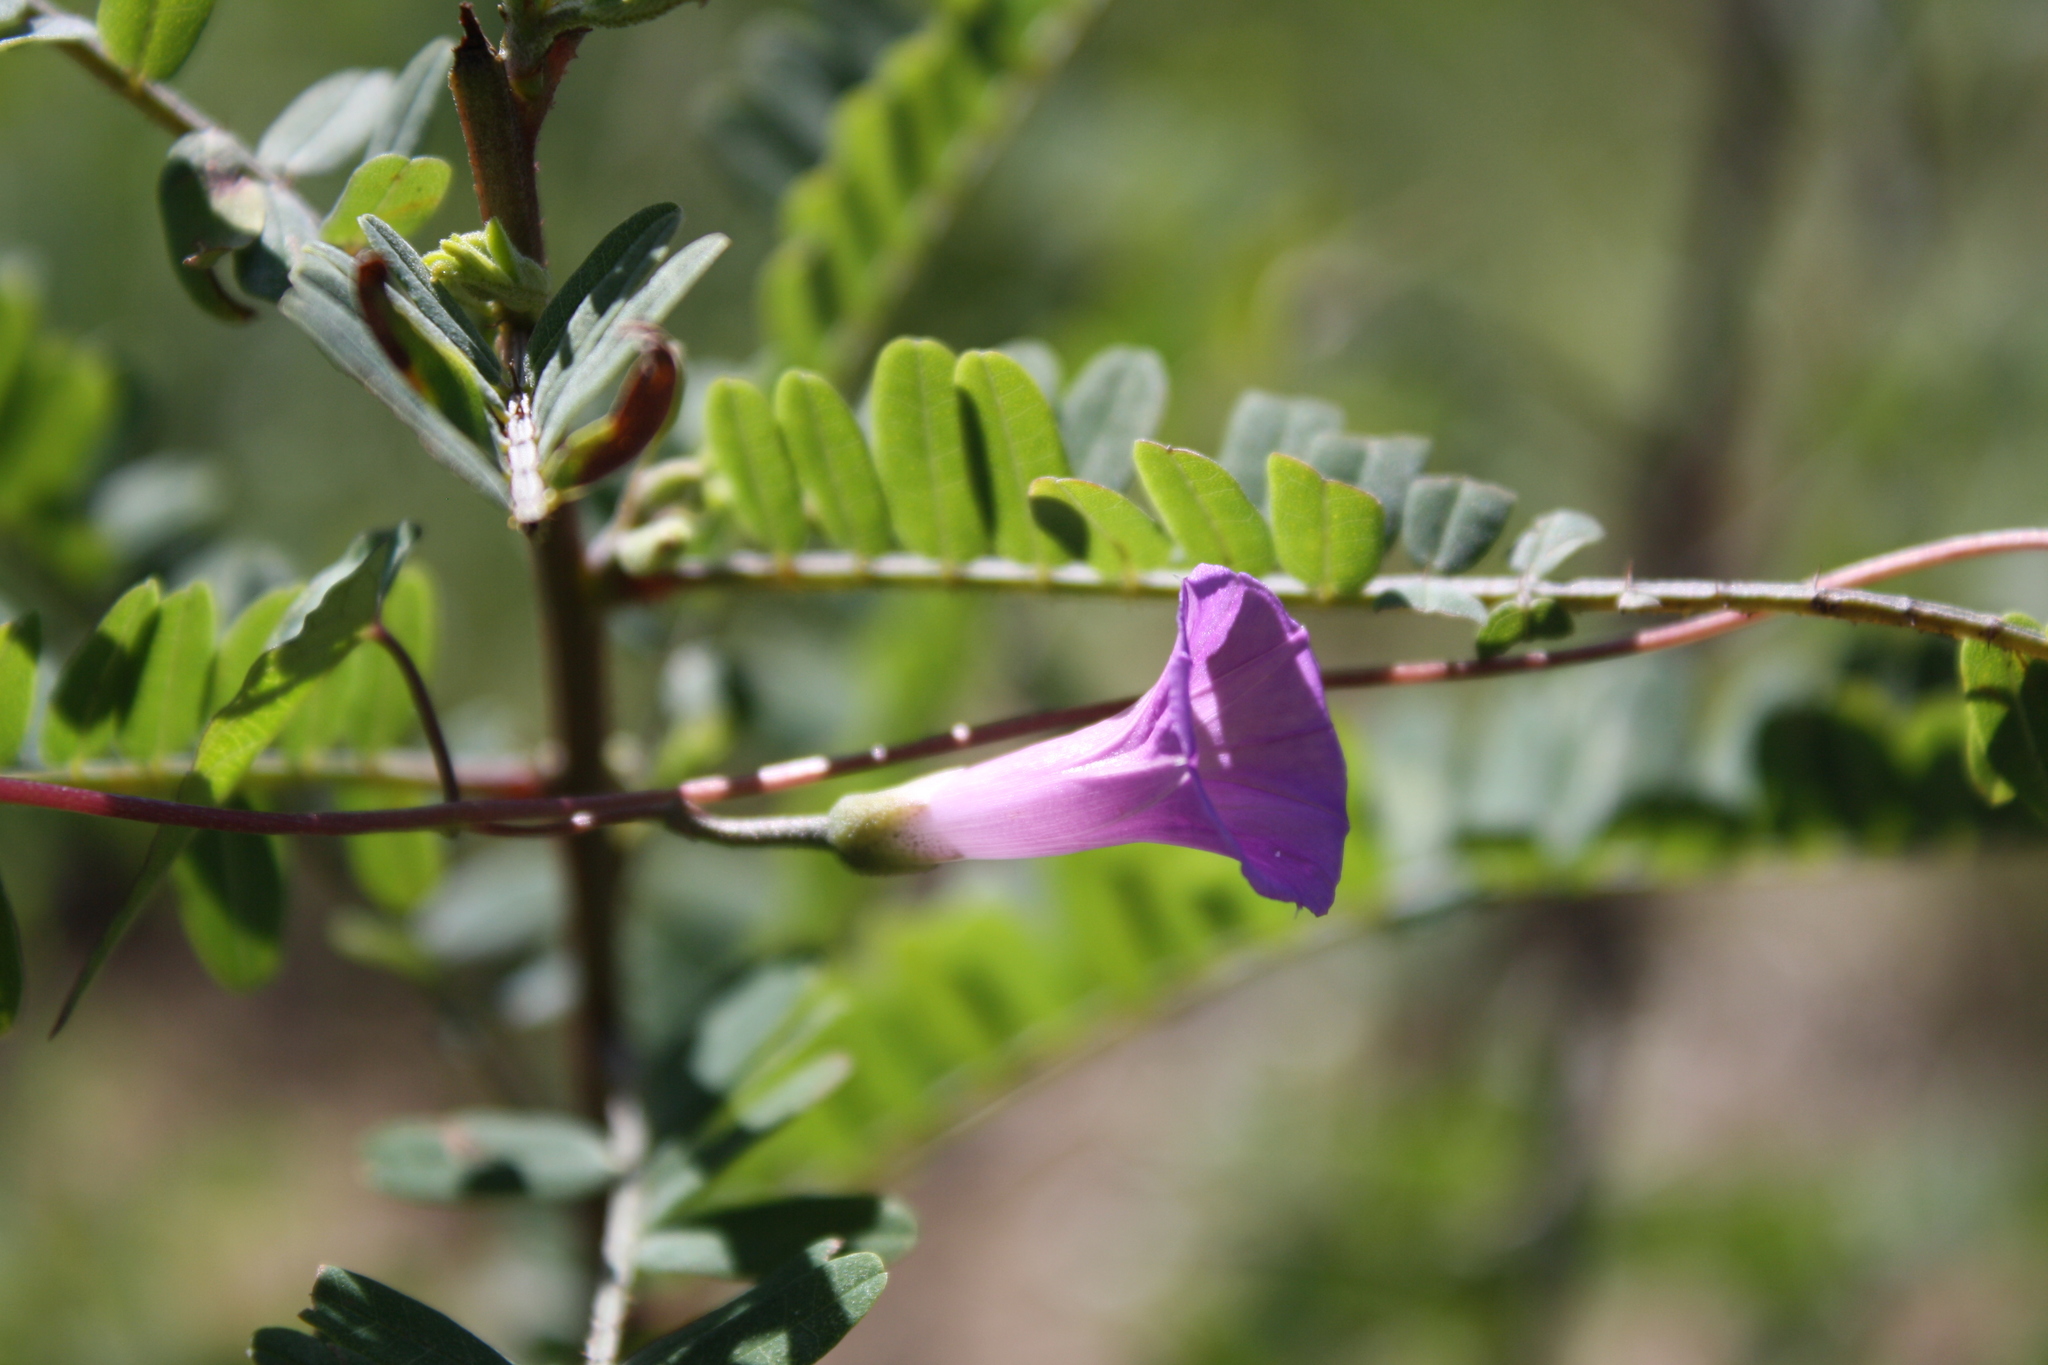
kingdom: Plantae
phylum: Tracheophyta
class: Magnoliopsida
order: Solanales
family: Convolvulaceae
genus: Ipomoea
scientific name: Ipomoea dumetorum
